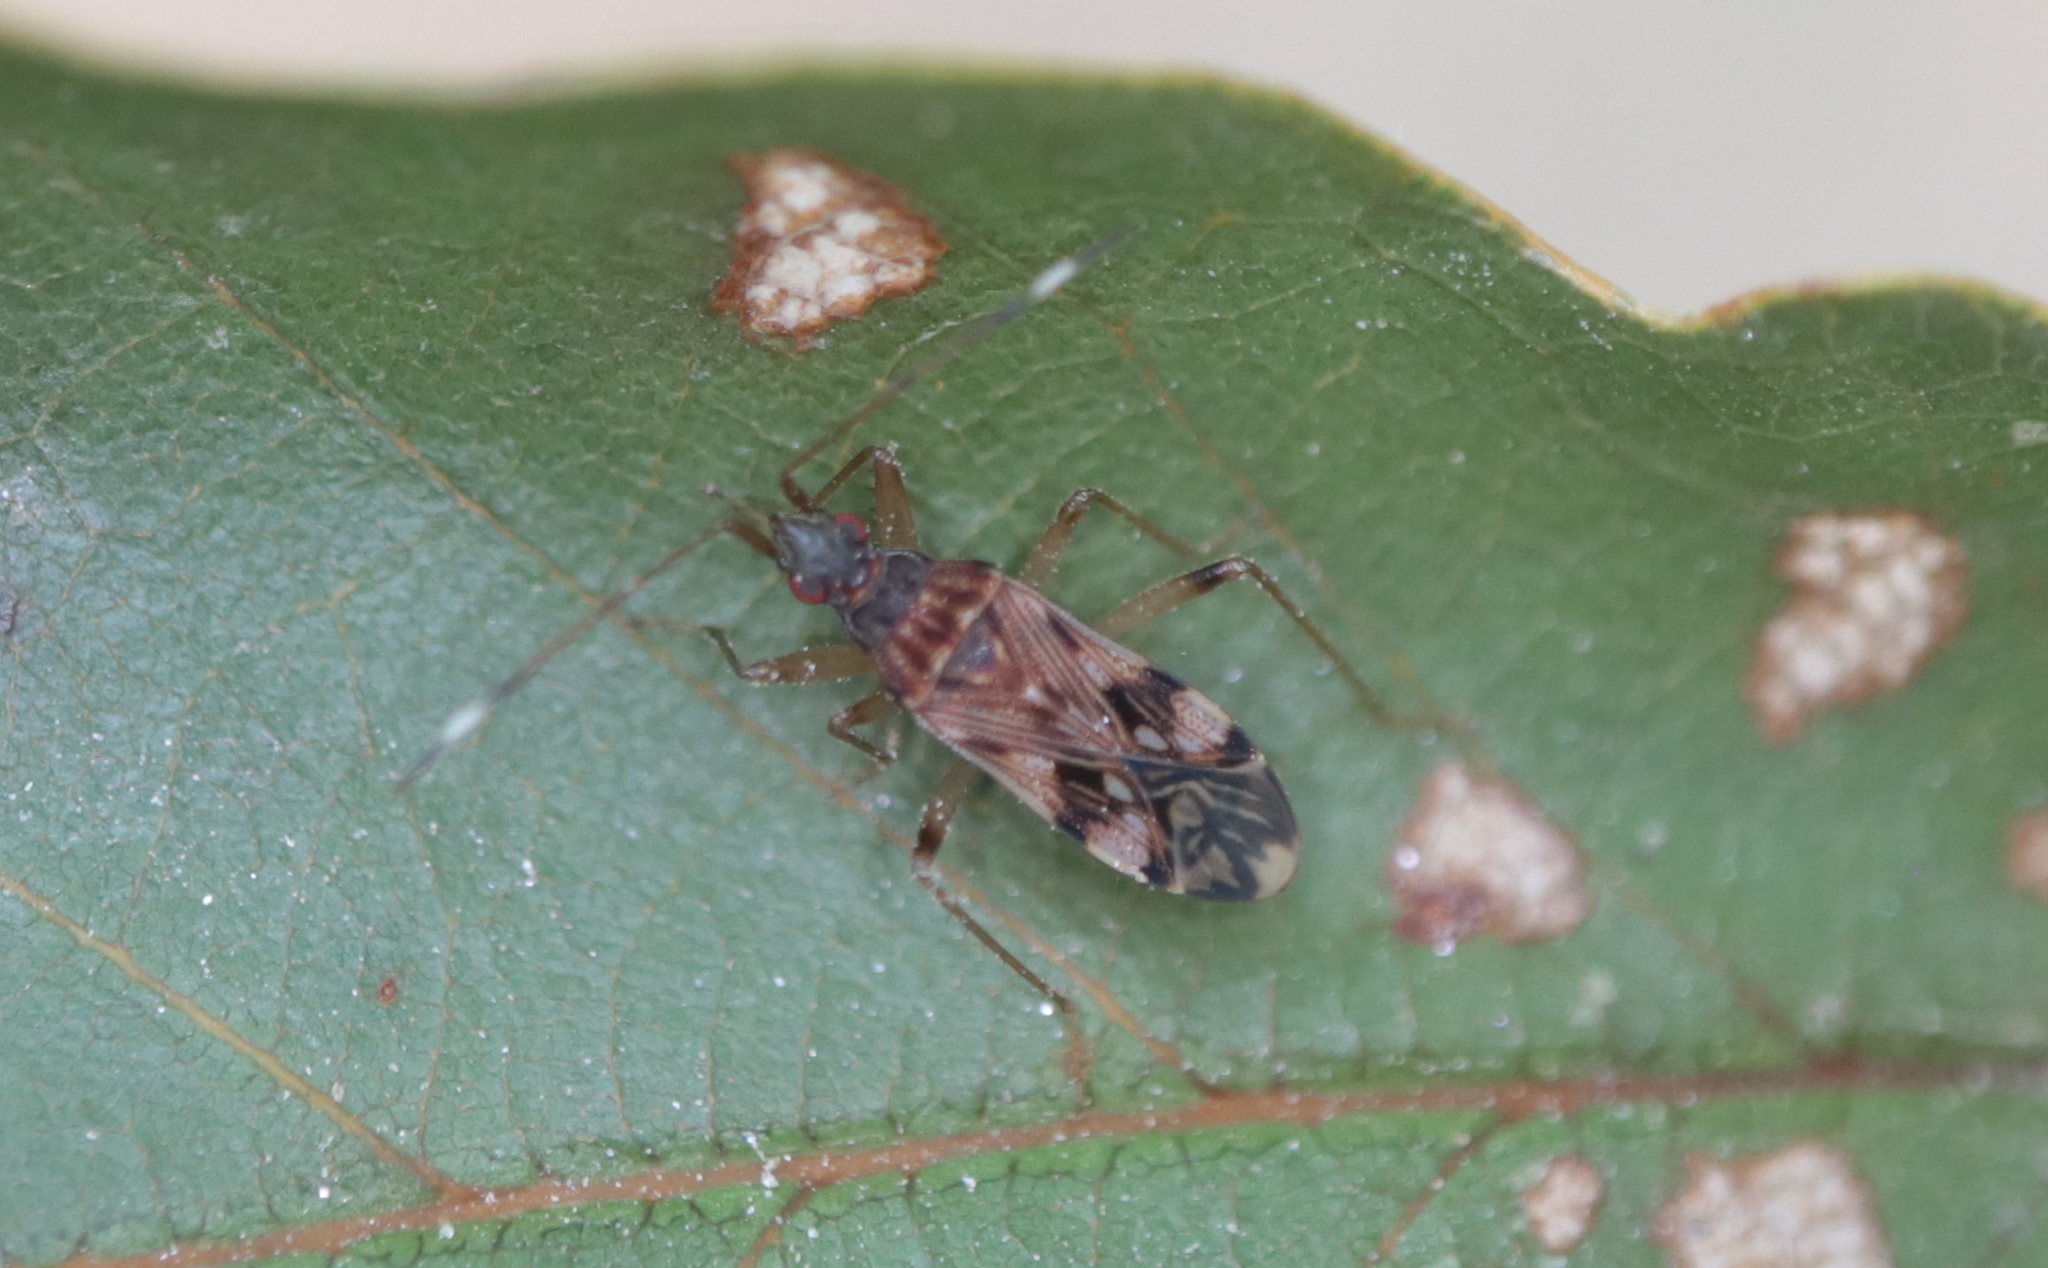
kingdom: Animalia
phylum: Arthropoda
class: Insecta
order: Hemiptera
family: Rhyparochromidae
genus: Ozophora
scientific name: Ozophora picturata
